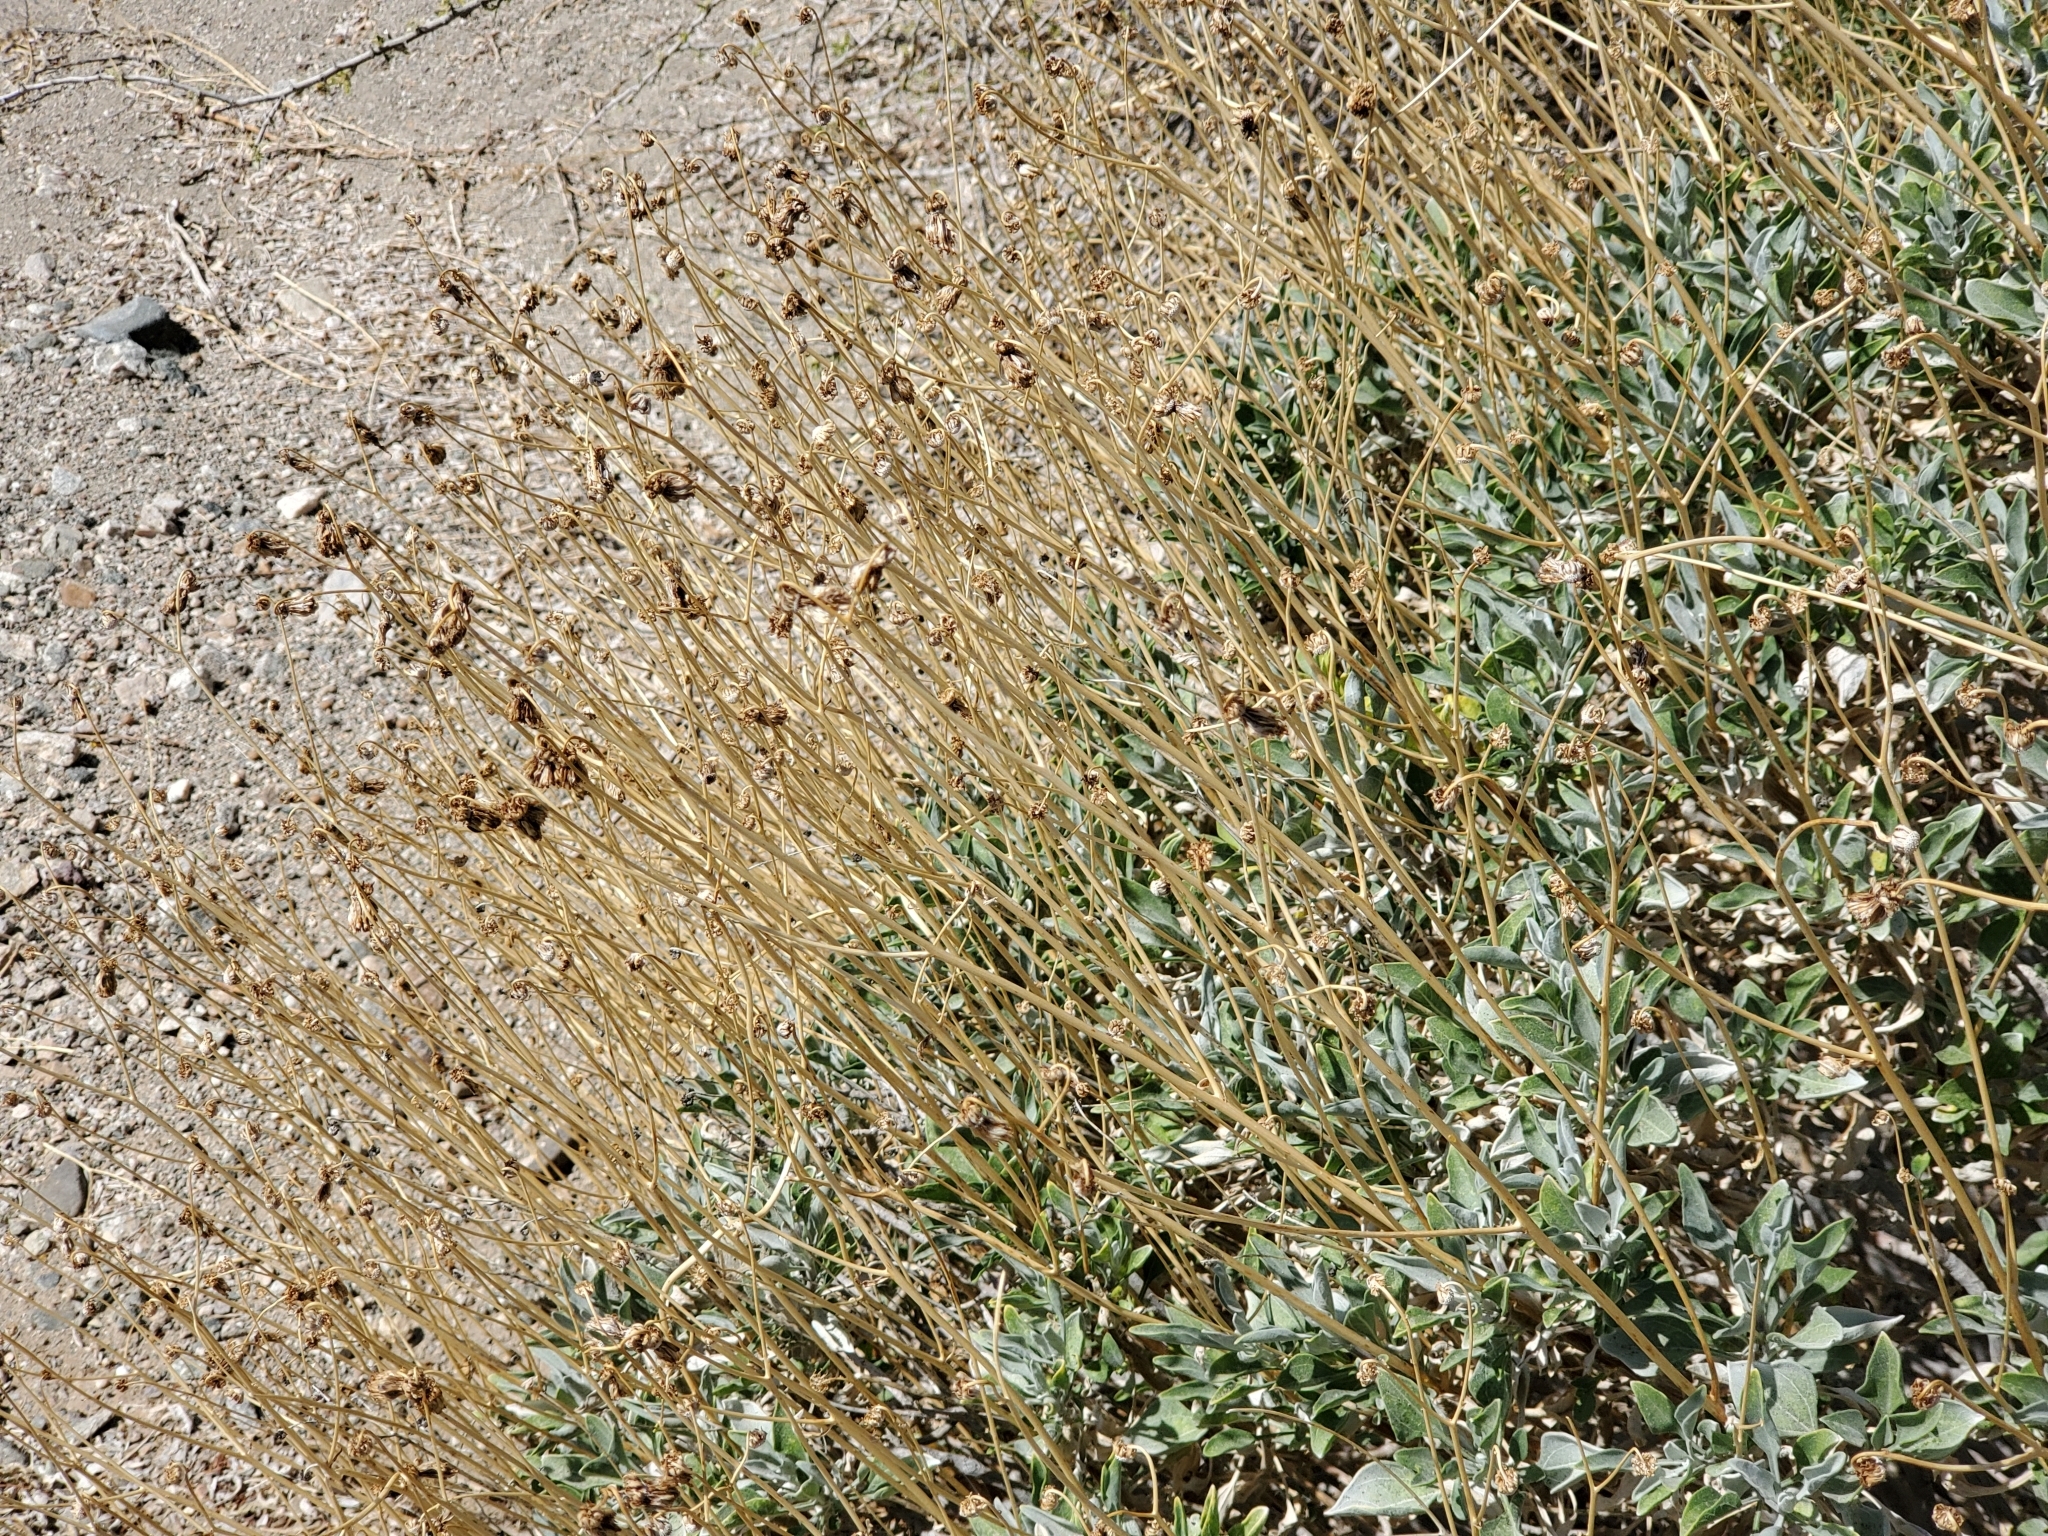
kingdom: Plantae
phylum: Tracheophyta
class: Magnoliopsida
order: Asterales
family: Asteraceae
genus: Encelia
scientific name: Encelia farinosa
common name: Brittlebush
